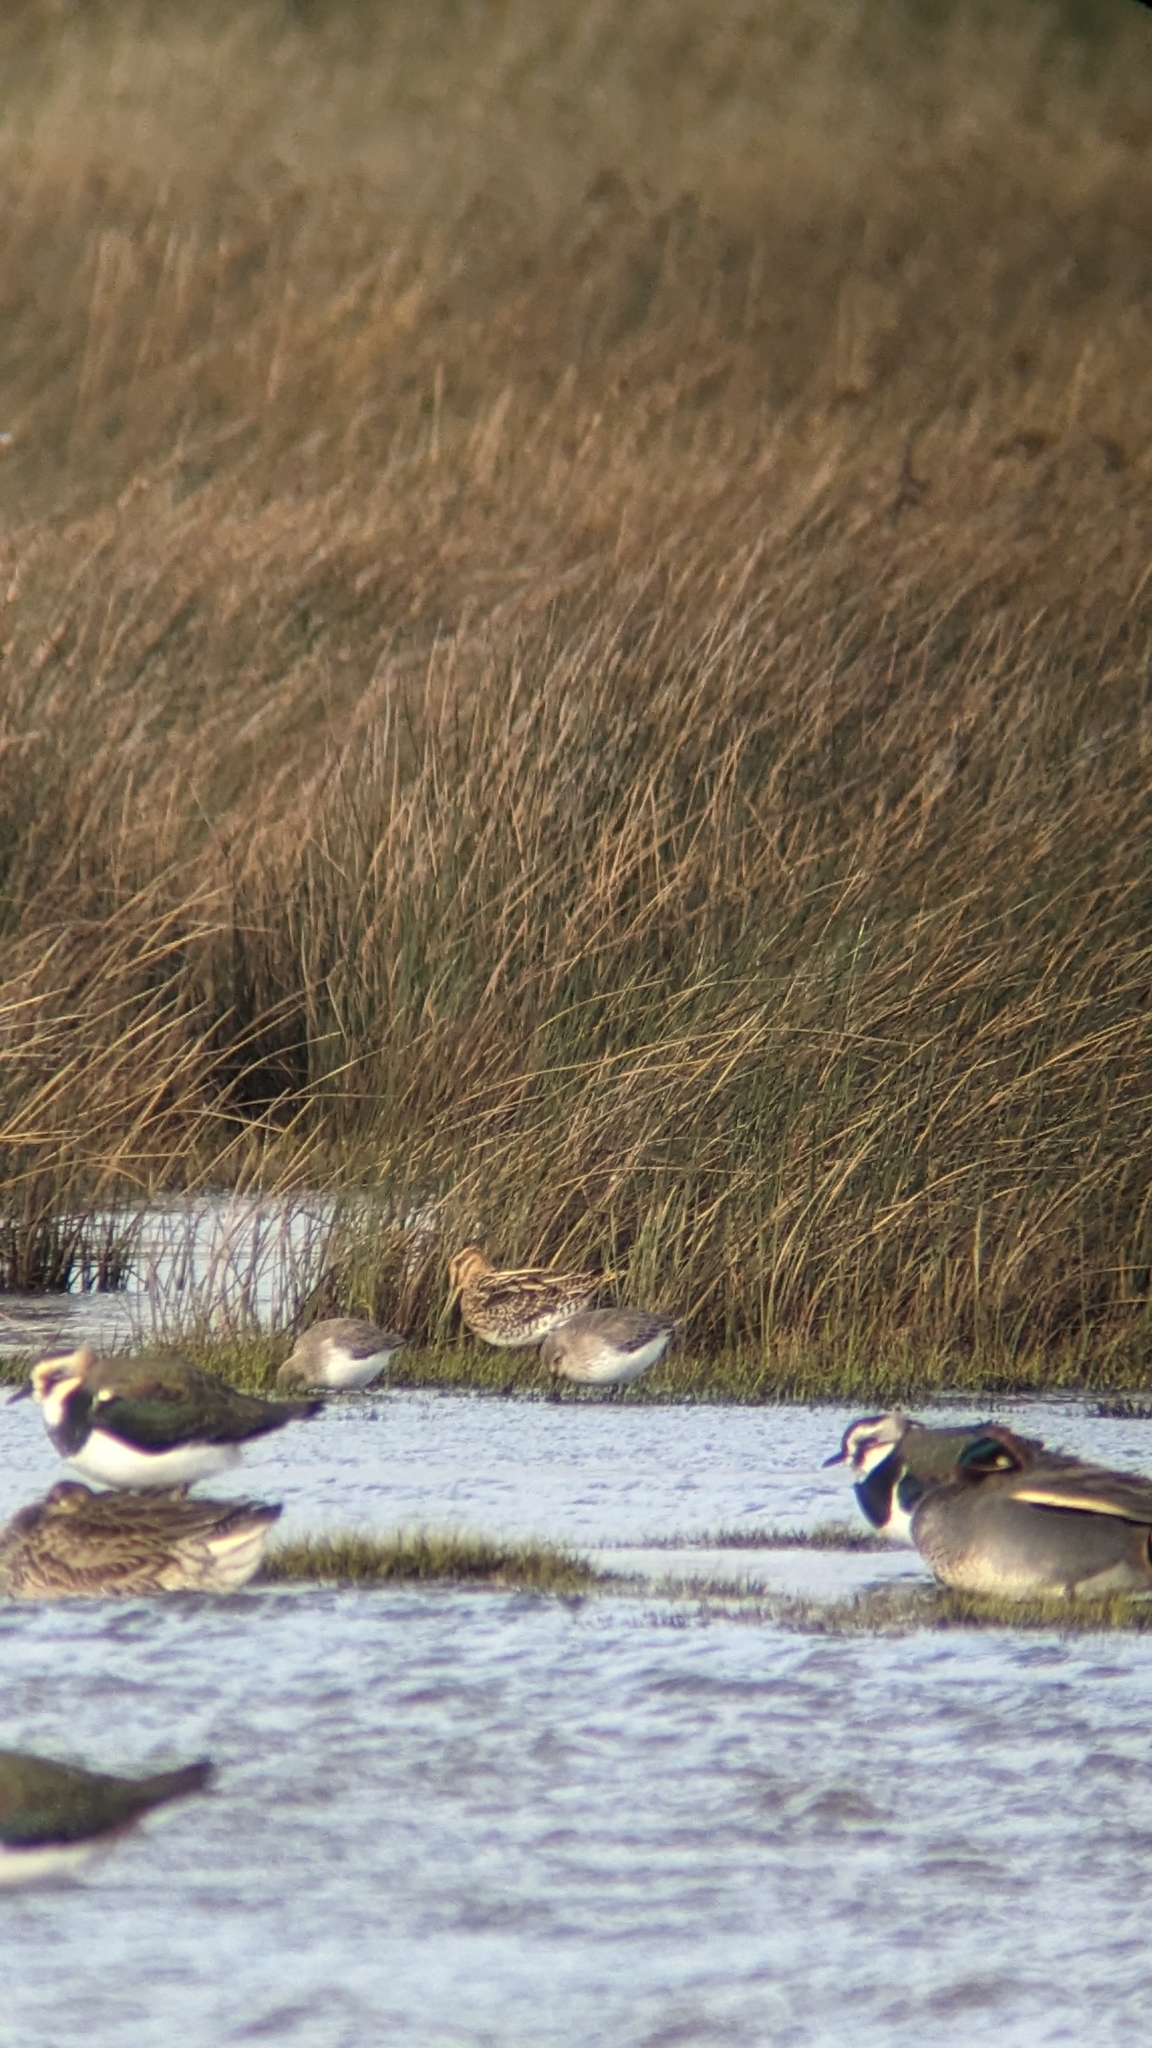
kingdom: Animalia
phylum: Chordata
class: Aves
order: Charadriiformes
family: Scolopacidae
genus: Calidris
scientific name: Calidris alpina
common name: Dunlin
